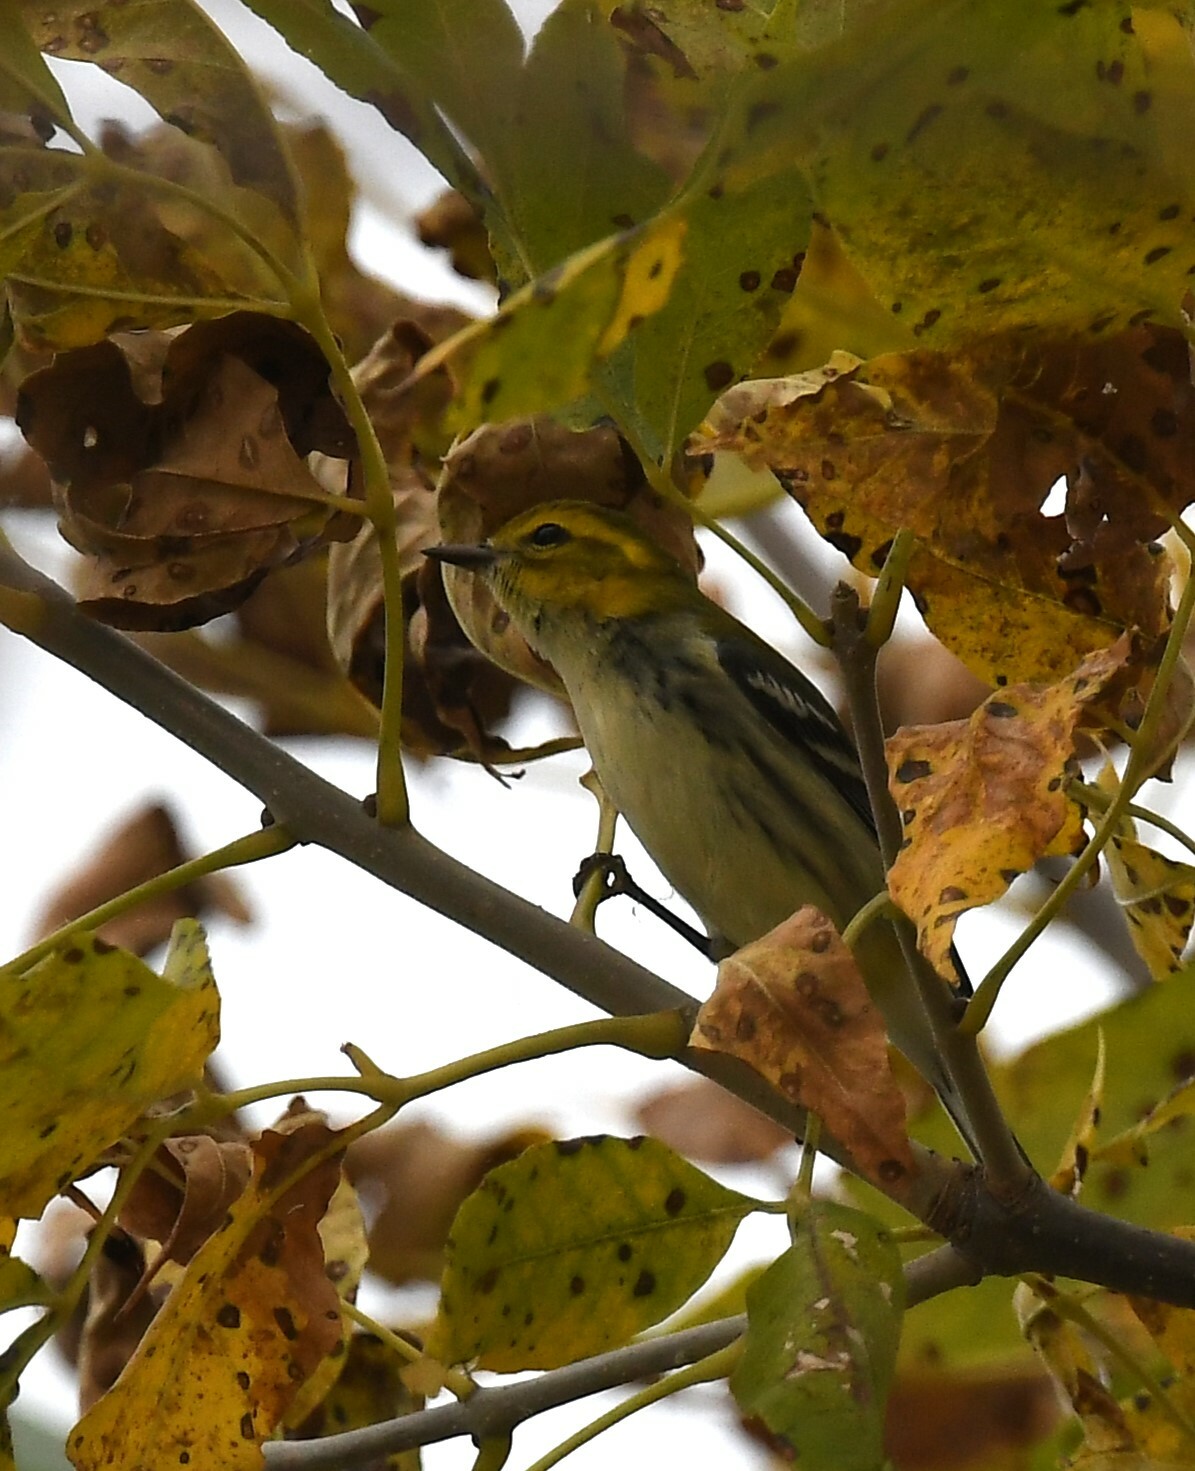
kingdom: Animalia
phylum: Chordata
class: Aves
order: Passeriformes
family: Parulidae
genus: Setophaga
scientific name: Setophaga virens
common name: Black-throated green warbler
